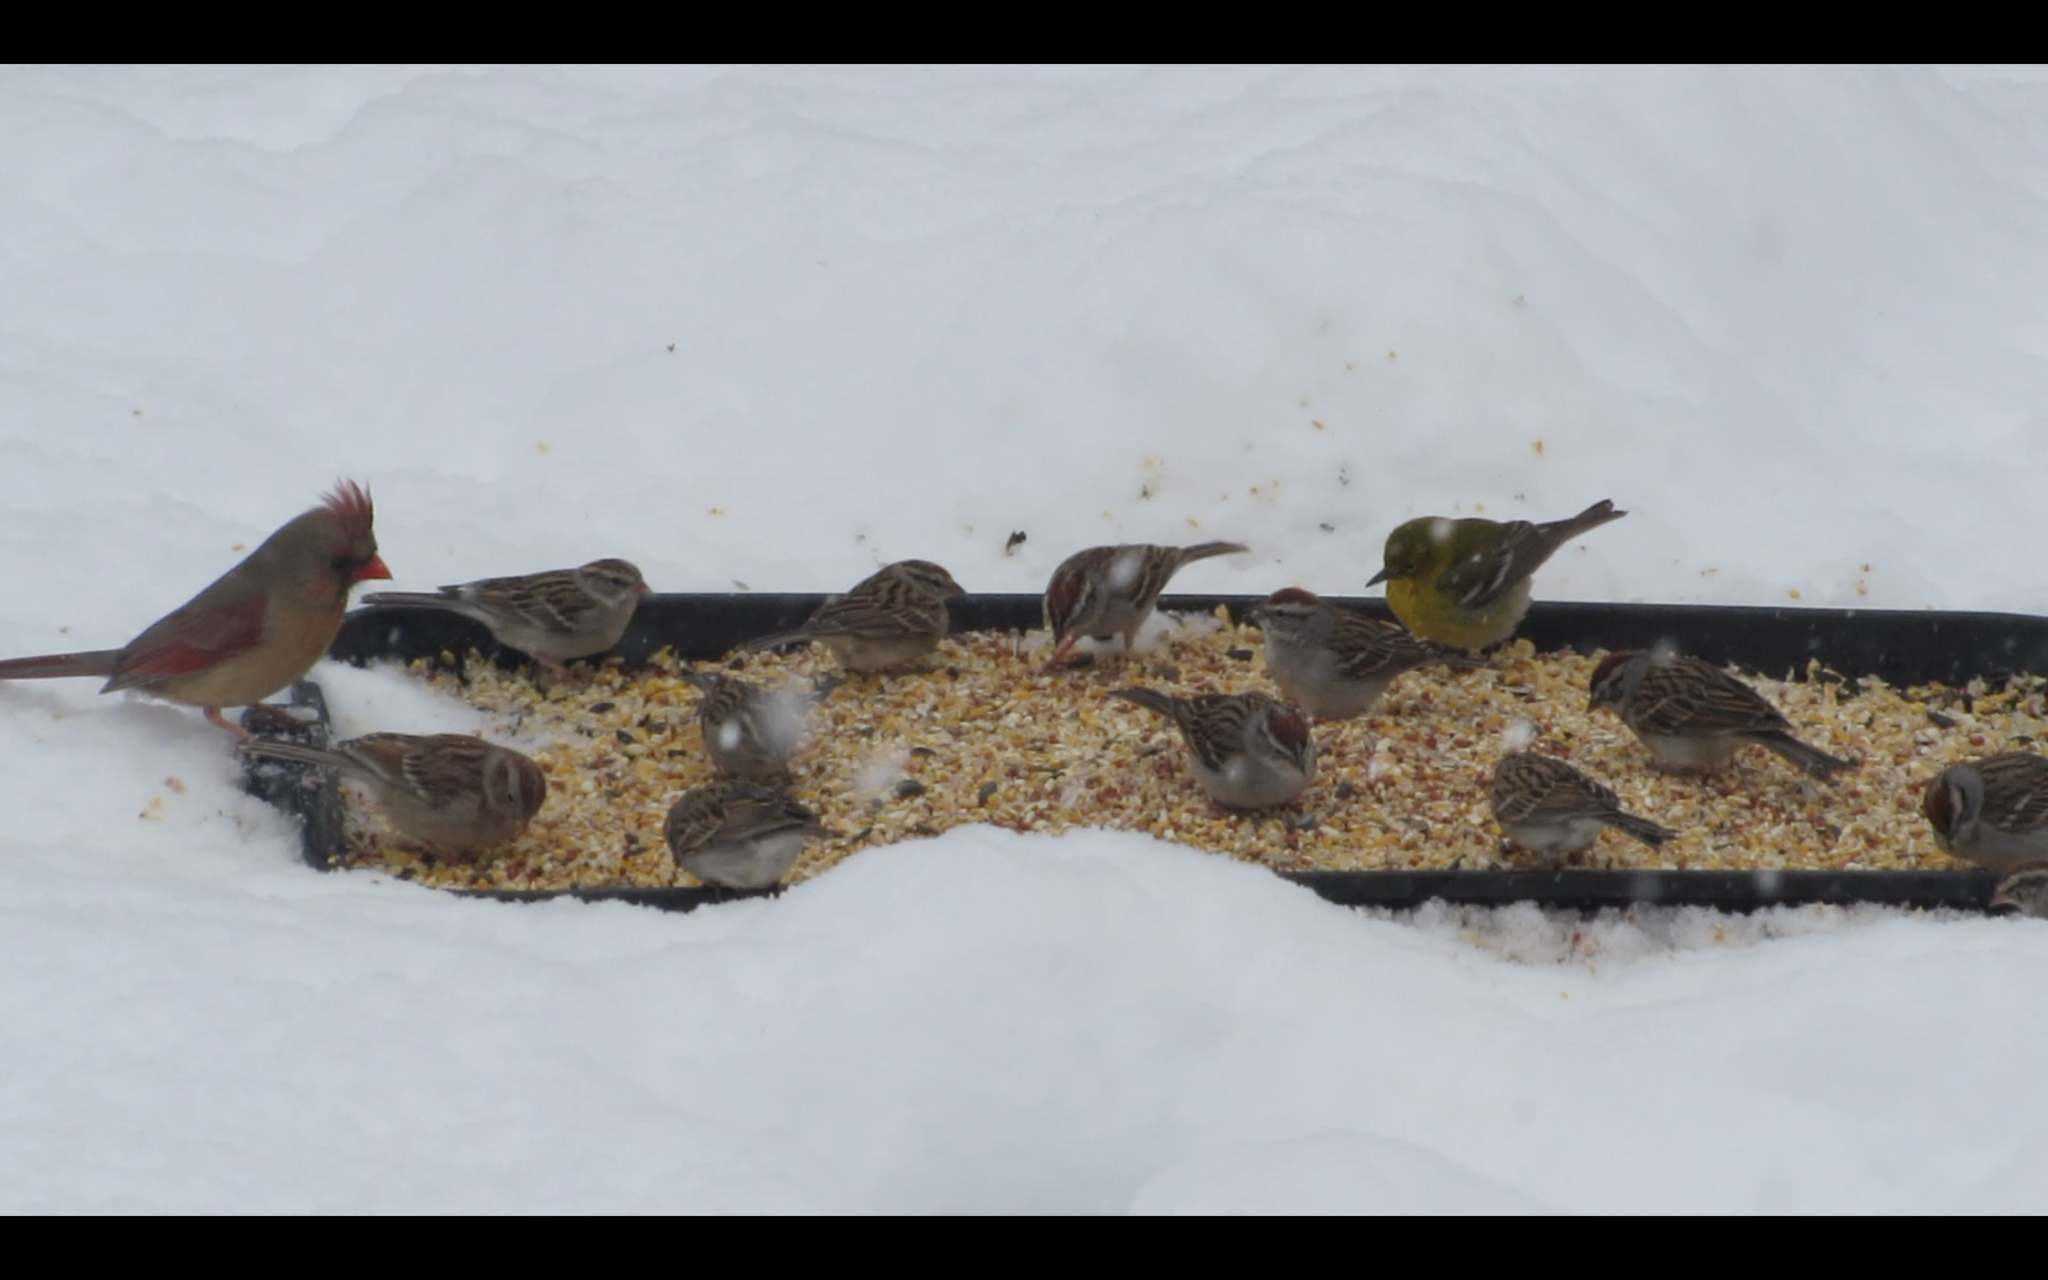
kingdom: Animalia
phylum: Chordata
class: Aves
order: Passeriformes
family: Parulidae
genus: Setophaga
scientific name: Setophaga pinus
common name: Pine warbler
